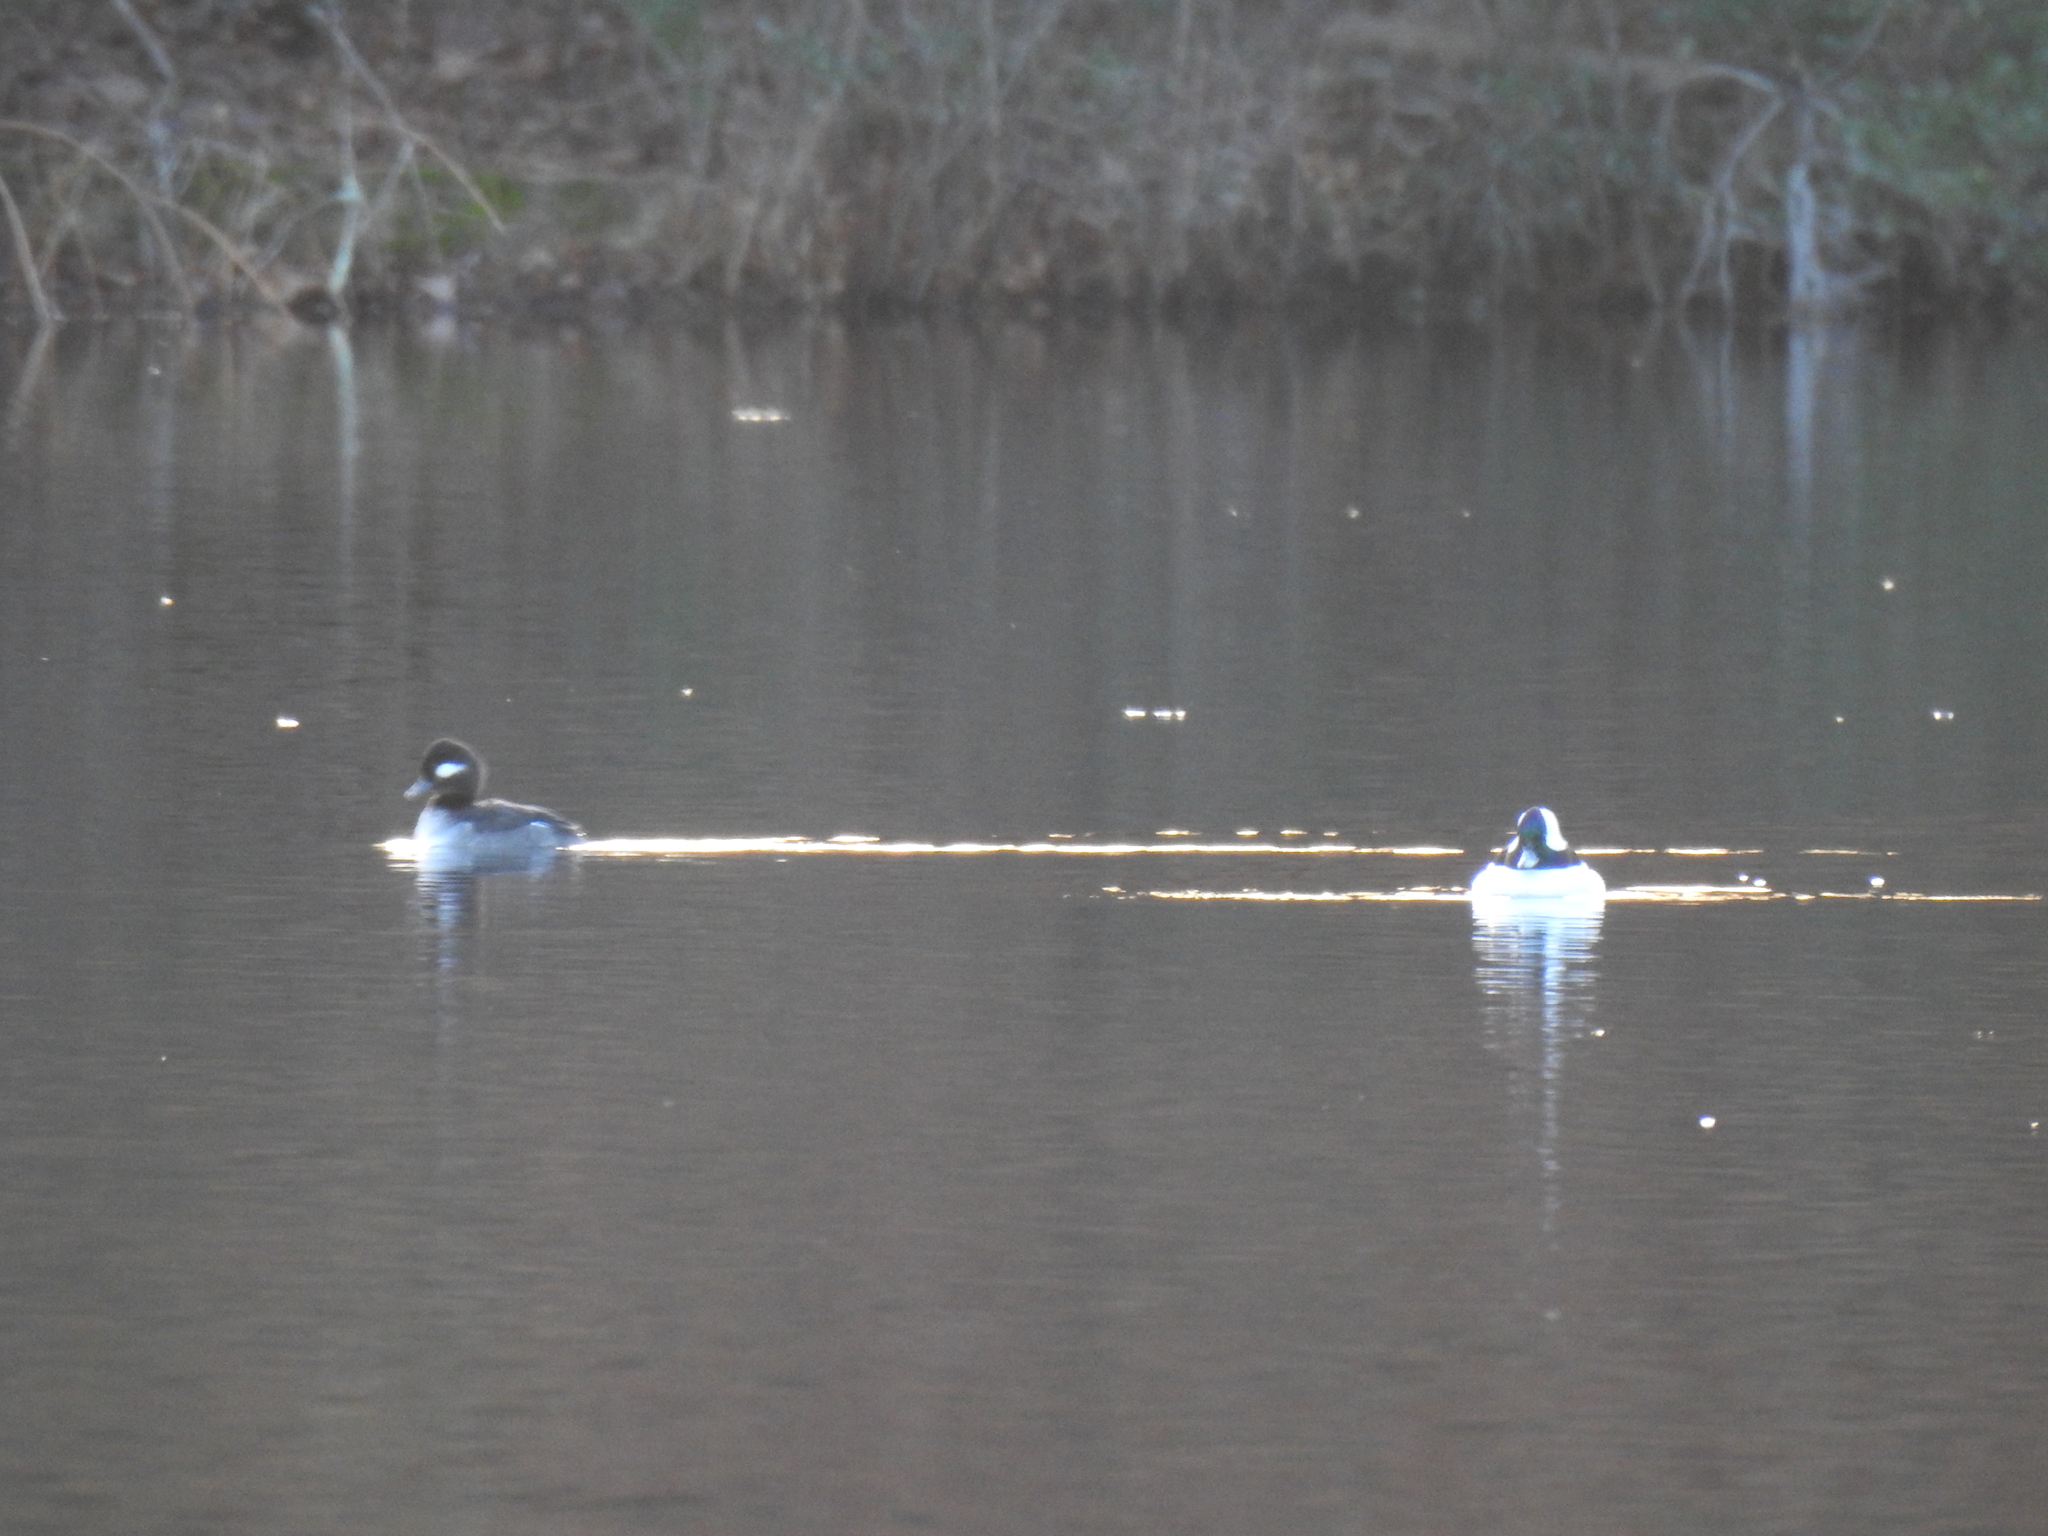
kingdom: Animalia
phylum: Chordata
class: Aves
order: Anseriformes
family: Anatidae
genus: Bucephala
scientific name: Bucephala albeola
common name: Bufflehead
